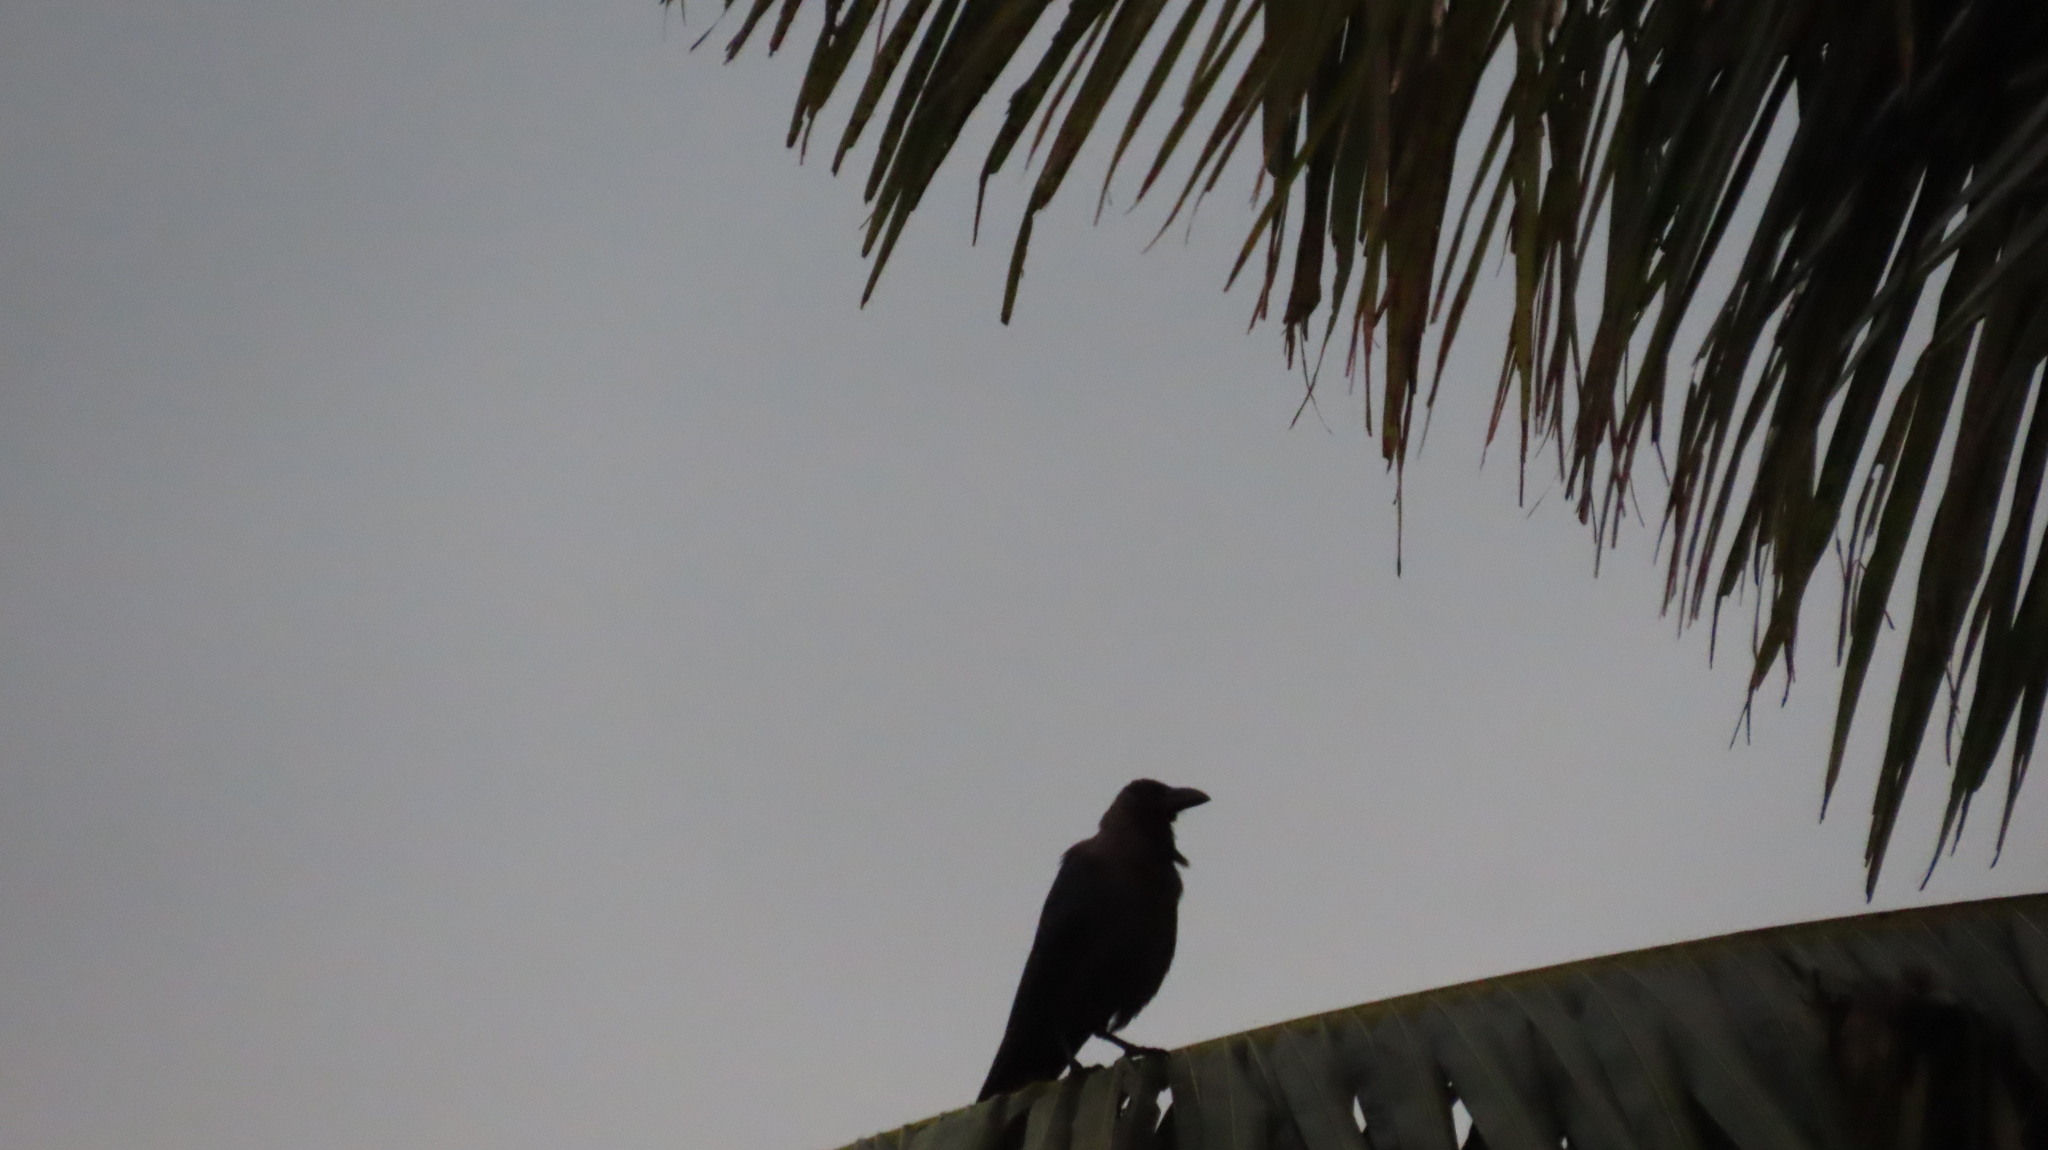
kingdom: Animalia
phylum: Chordata
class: Aves
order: Passeriformes
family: Corvidae
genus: Corvus
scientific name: Corvus splendens
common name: House crow
